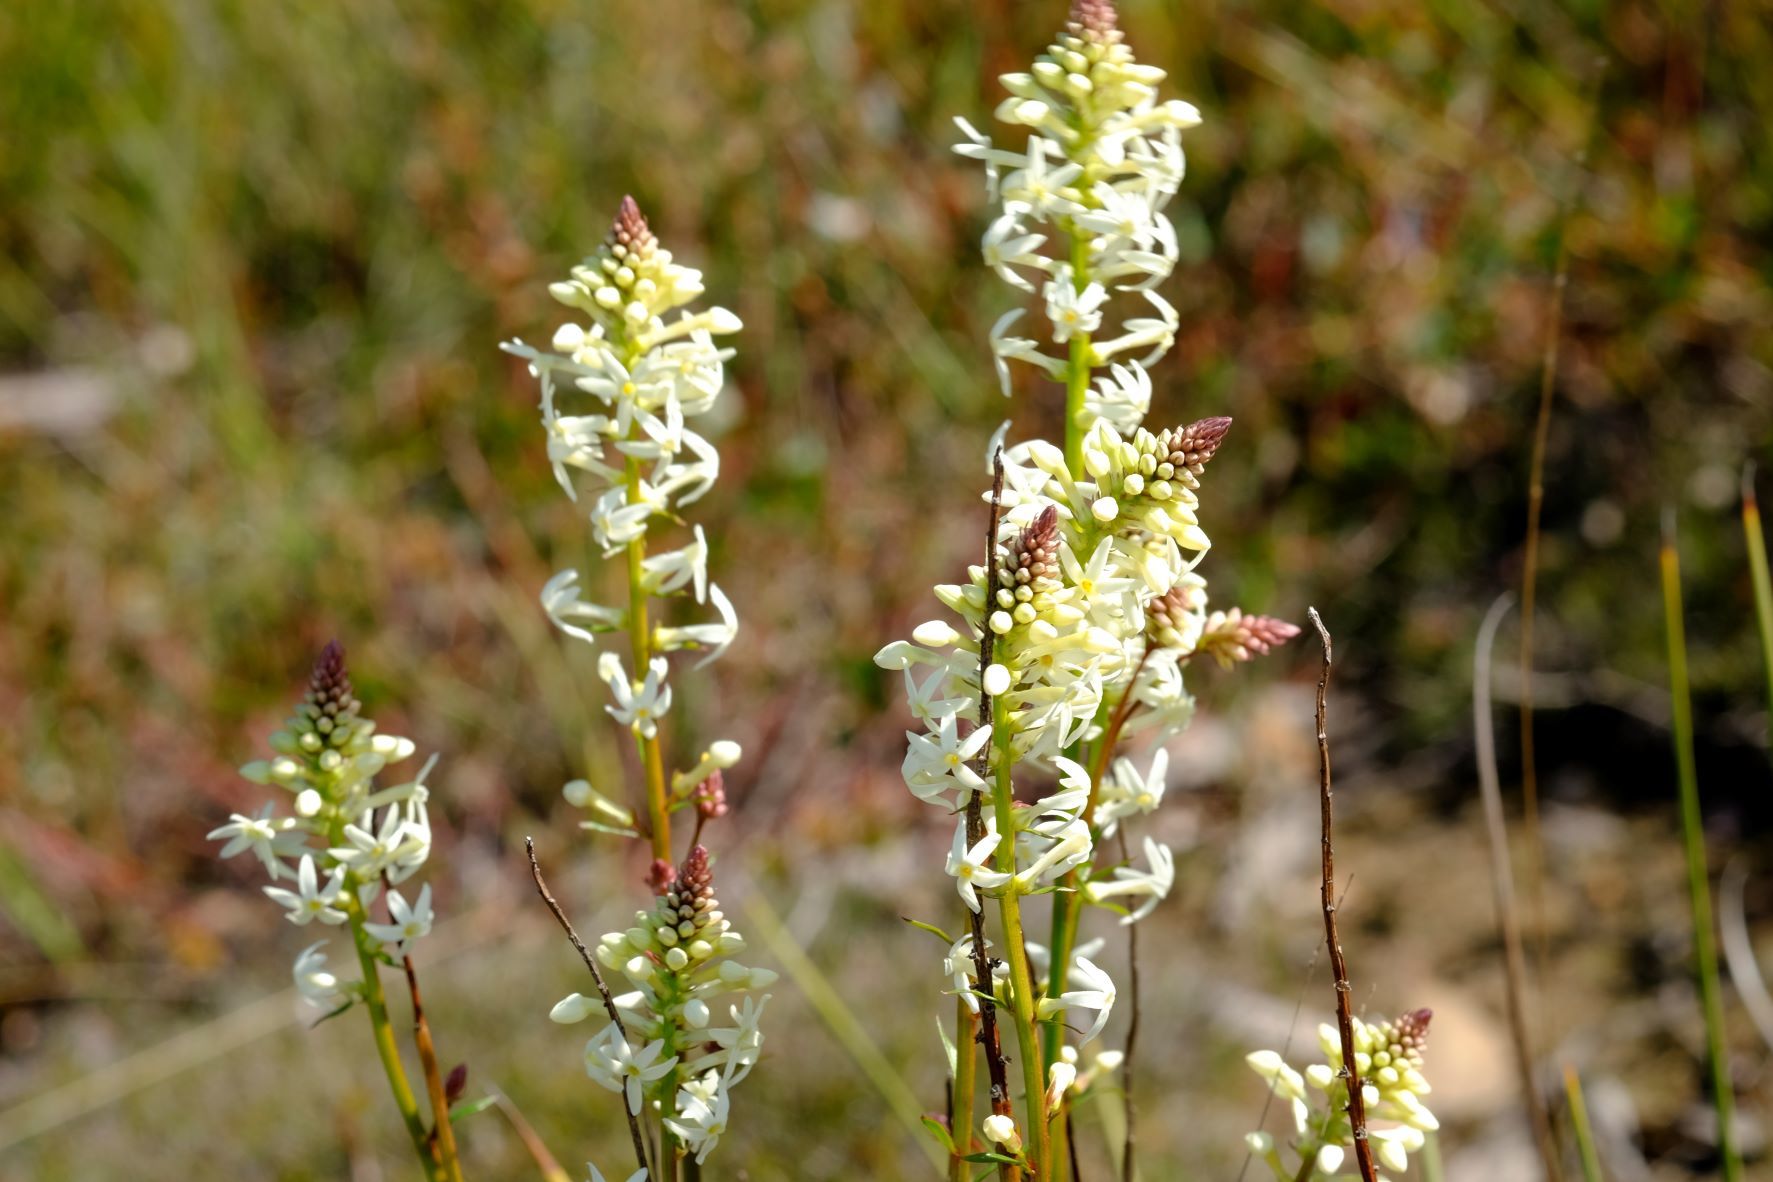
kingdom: Plantae
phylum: Tracheophyta
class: Magnoliopsida
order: Celastrales
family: Celastraceae
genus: Stackhousia
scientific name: Stackhousia monogyna
